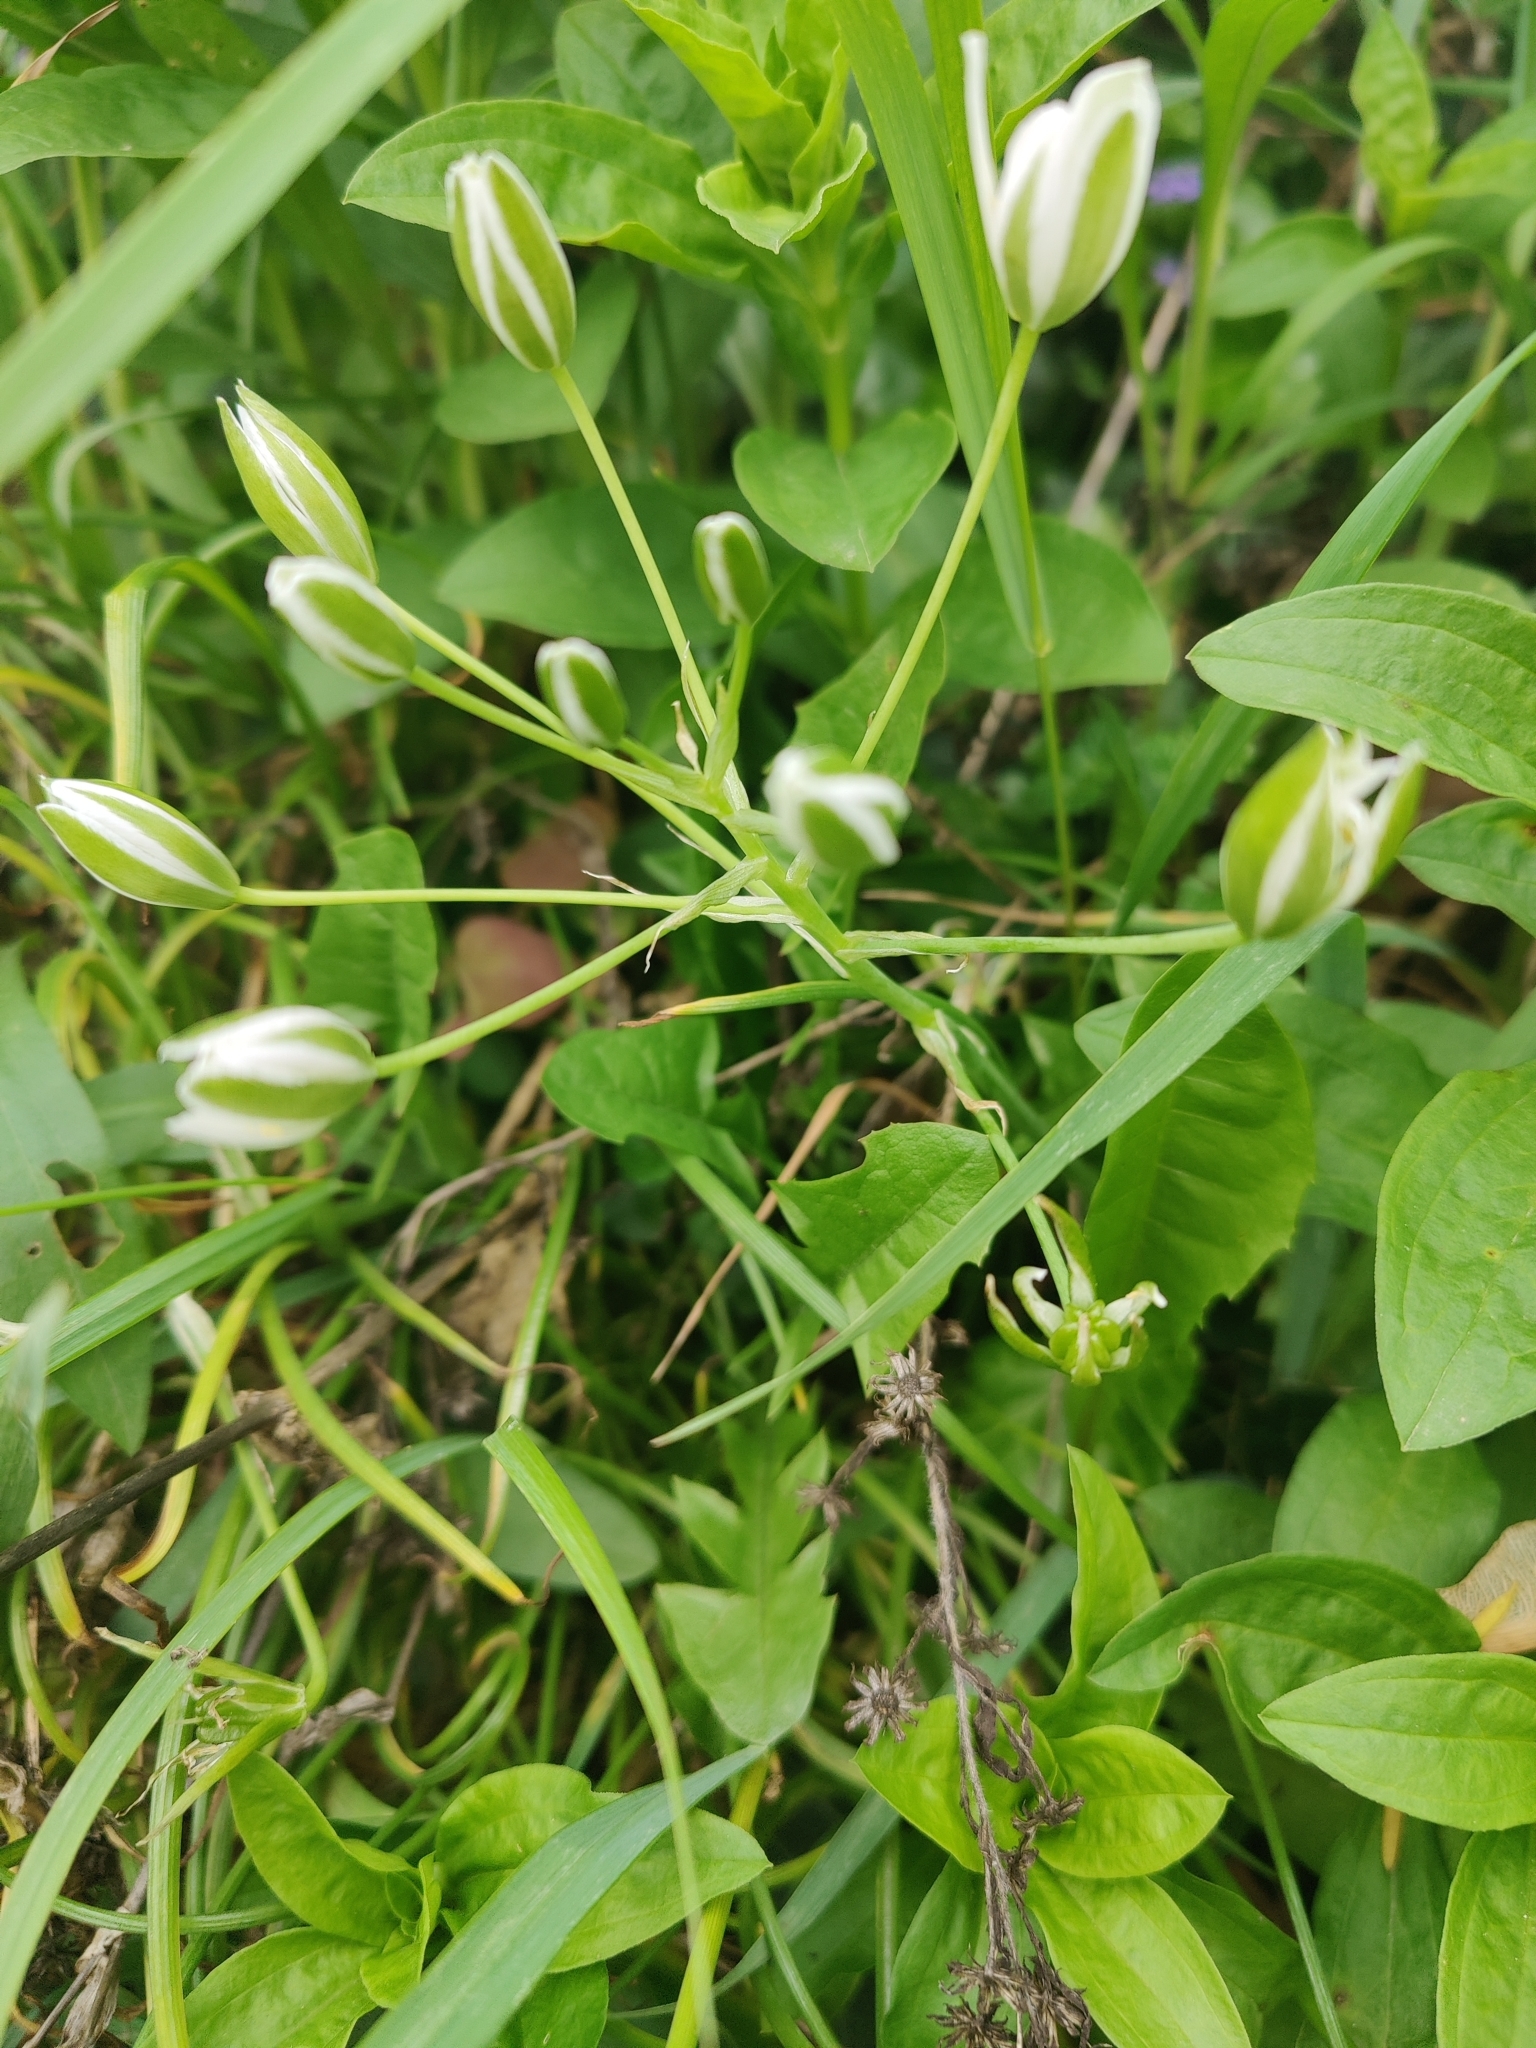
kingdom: Plantae
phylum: Tracheophyta
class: Liliopsida
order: Asparagales
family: Asparagaceae
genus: Ornithogalum
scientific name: Ornithogalum umbellatum
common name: Garden star-of-bethlehem
